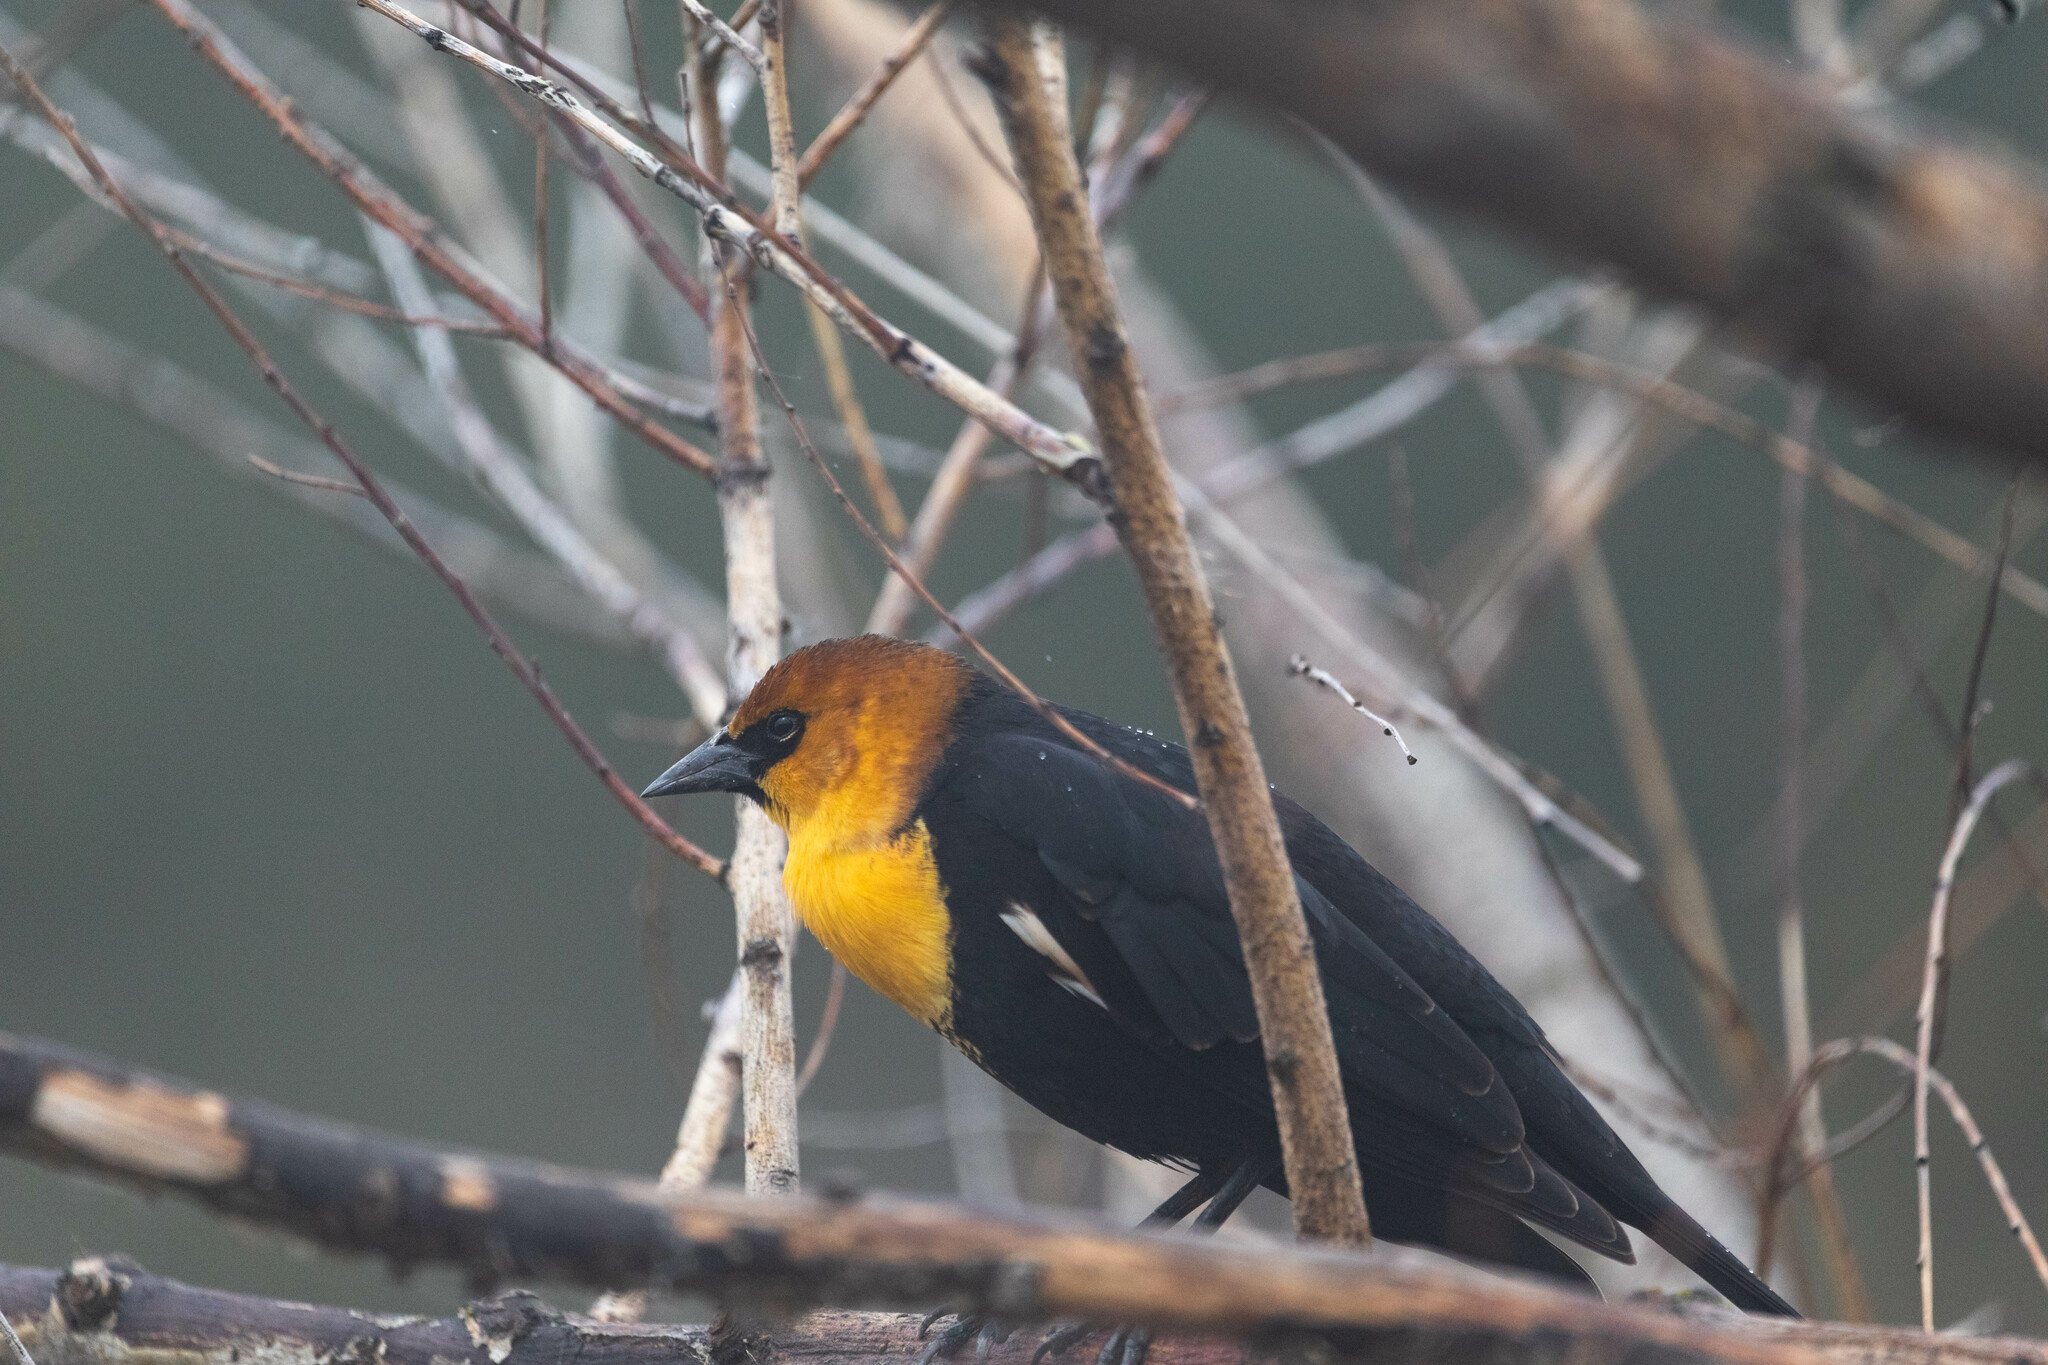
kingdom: Animalia
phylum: Chordata
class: Aves
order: Passeriformes
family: Icteridae
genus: Xanthocephalus
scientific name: Xanthocephalus xanthocephalus
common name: Yellow-headed blackbird
